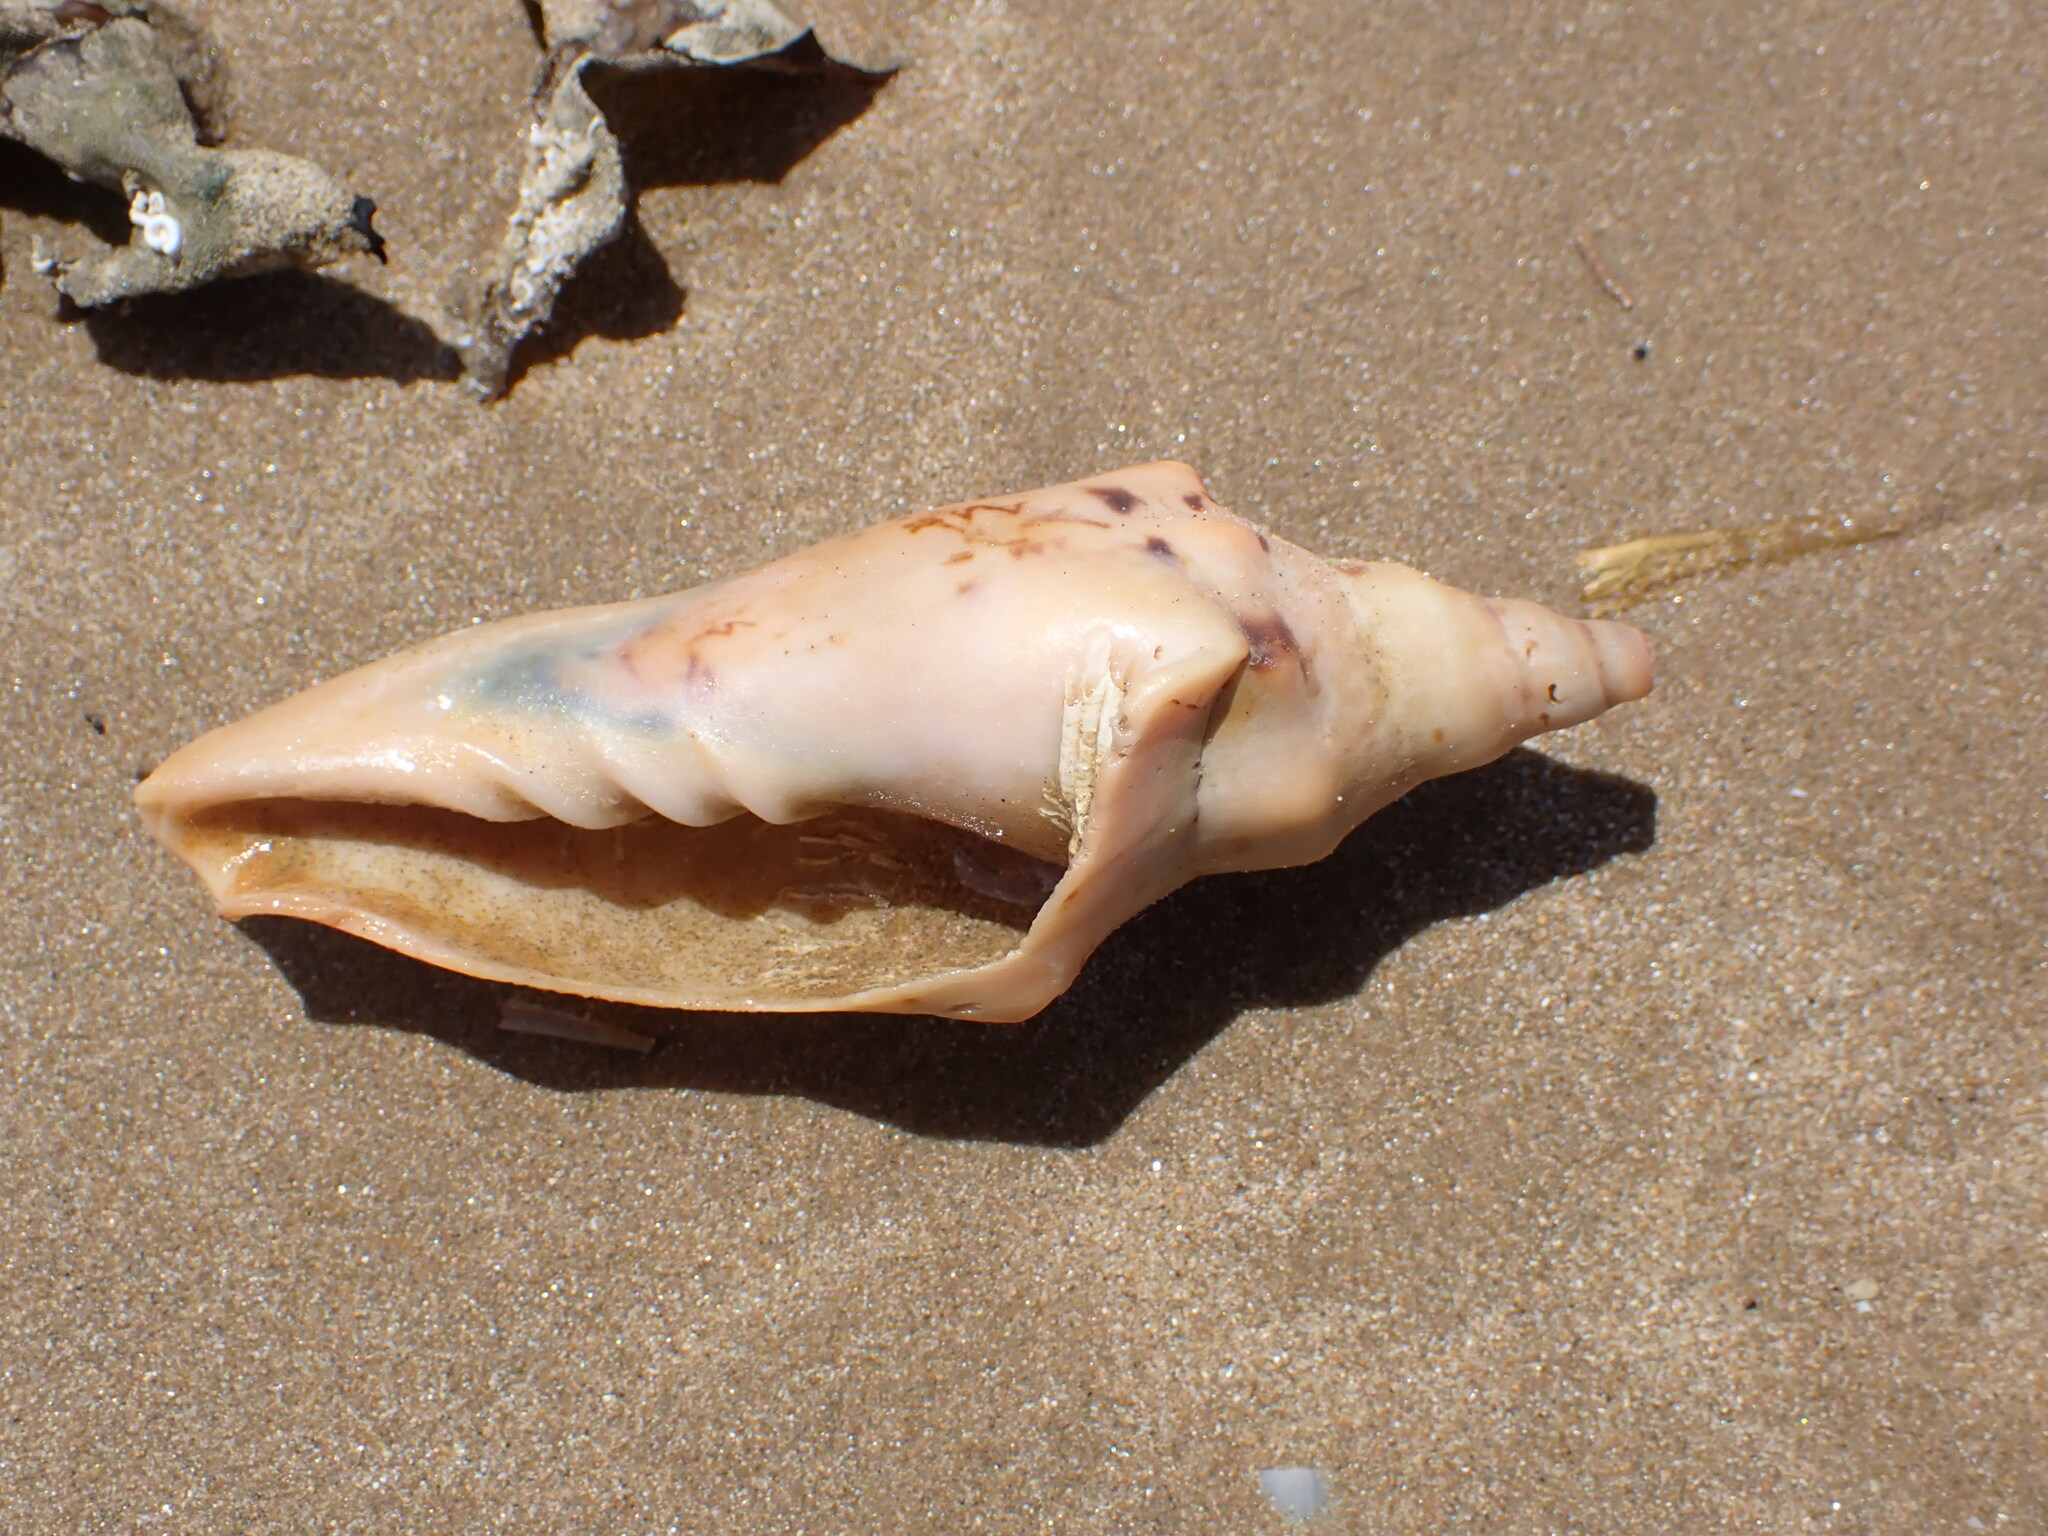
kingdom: Animalia
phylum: Mollusca
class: Gastropoda
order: Neogastropoda
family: Volutidae
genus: Alcithoe
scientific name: Alcithoe arabica
